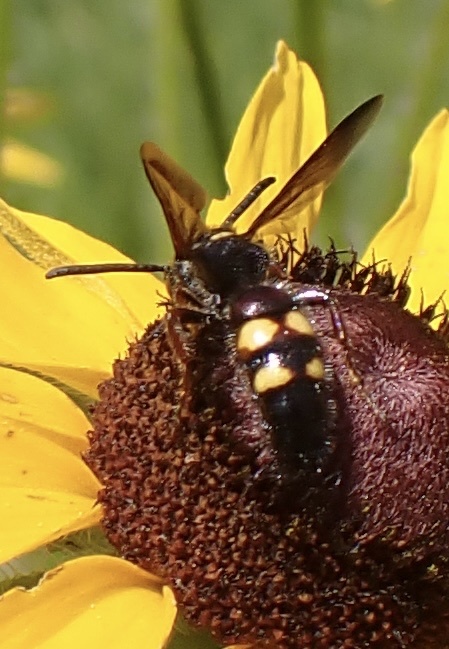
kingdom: Animalia
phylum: Arthropoda
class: Insecta
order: Hymenoptera
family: Scoliidae
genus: Scolia
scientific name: Scolia nobilitata
